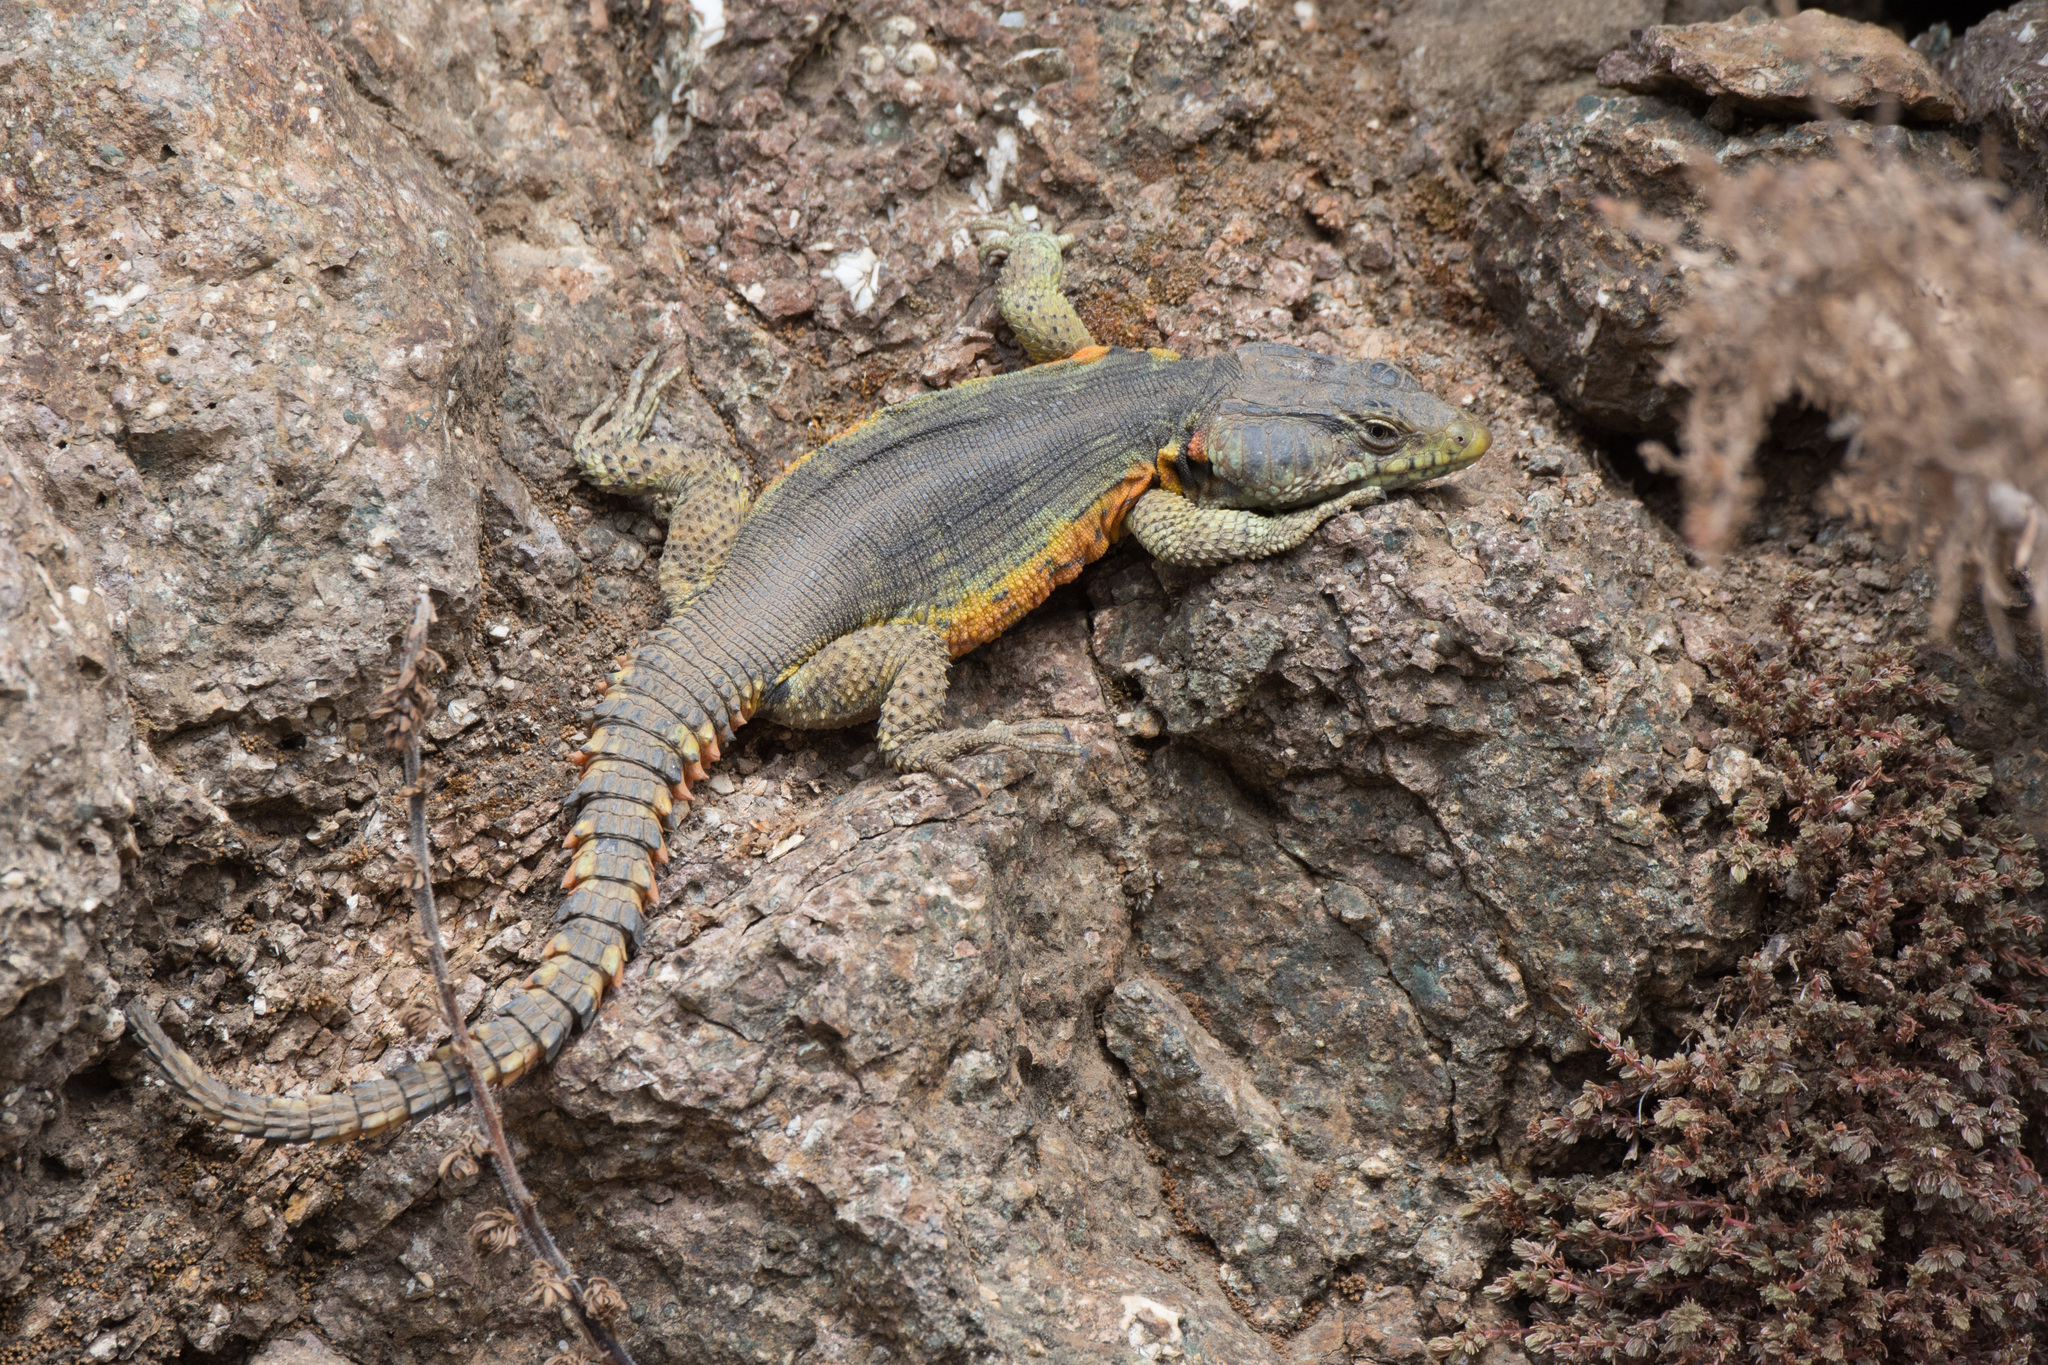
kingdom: Animalia
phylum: Chordata
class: Squamata
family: Cordylidae
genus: Pseudocordylus
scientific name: Pseudocordylus subviridis
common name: Drakensberg crag lizard
